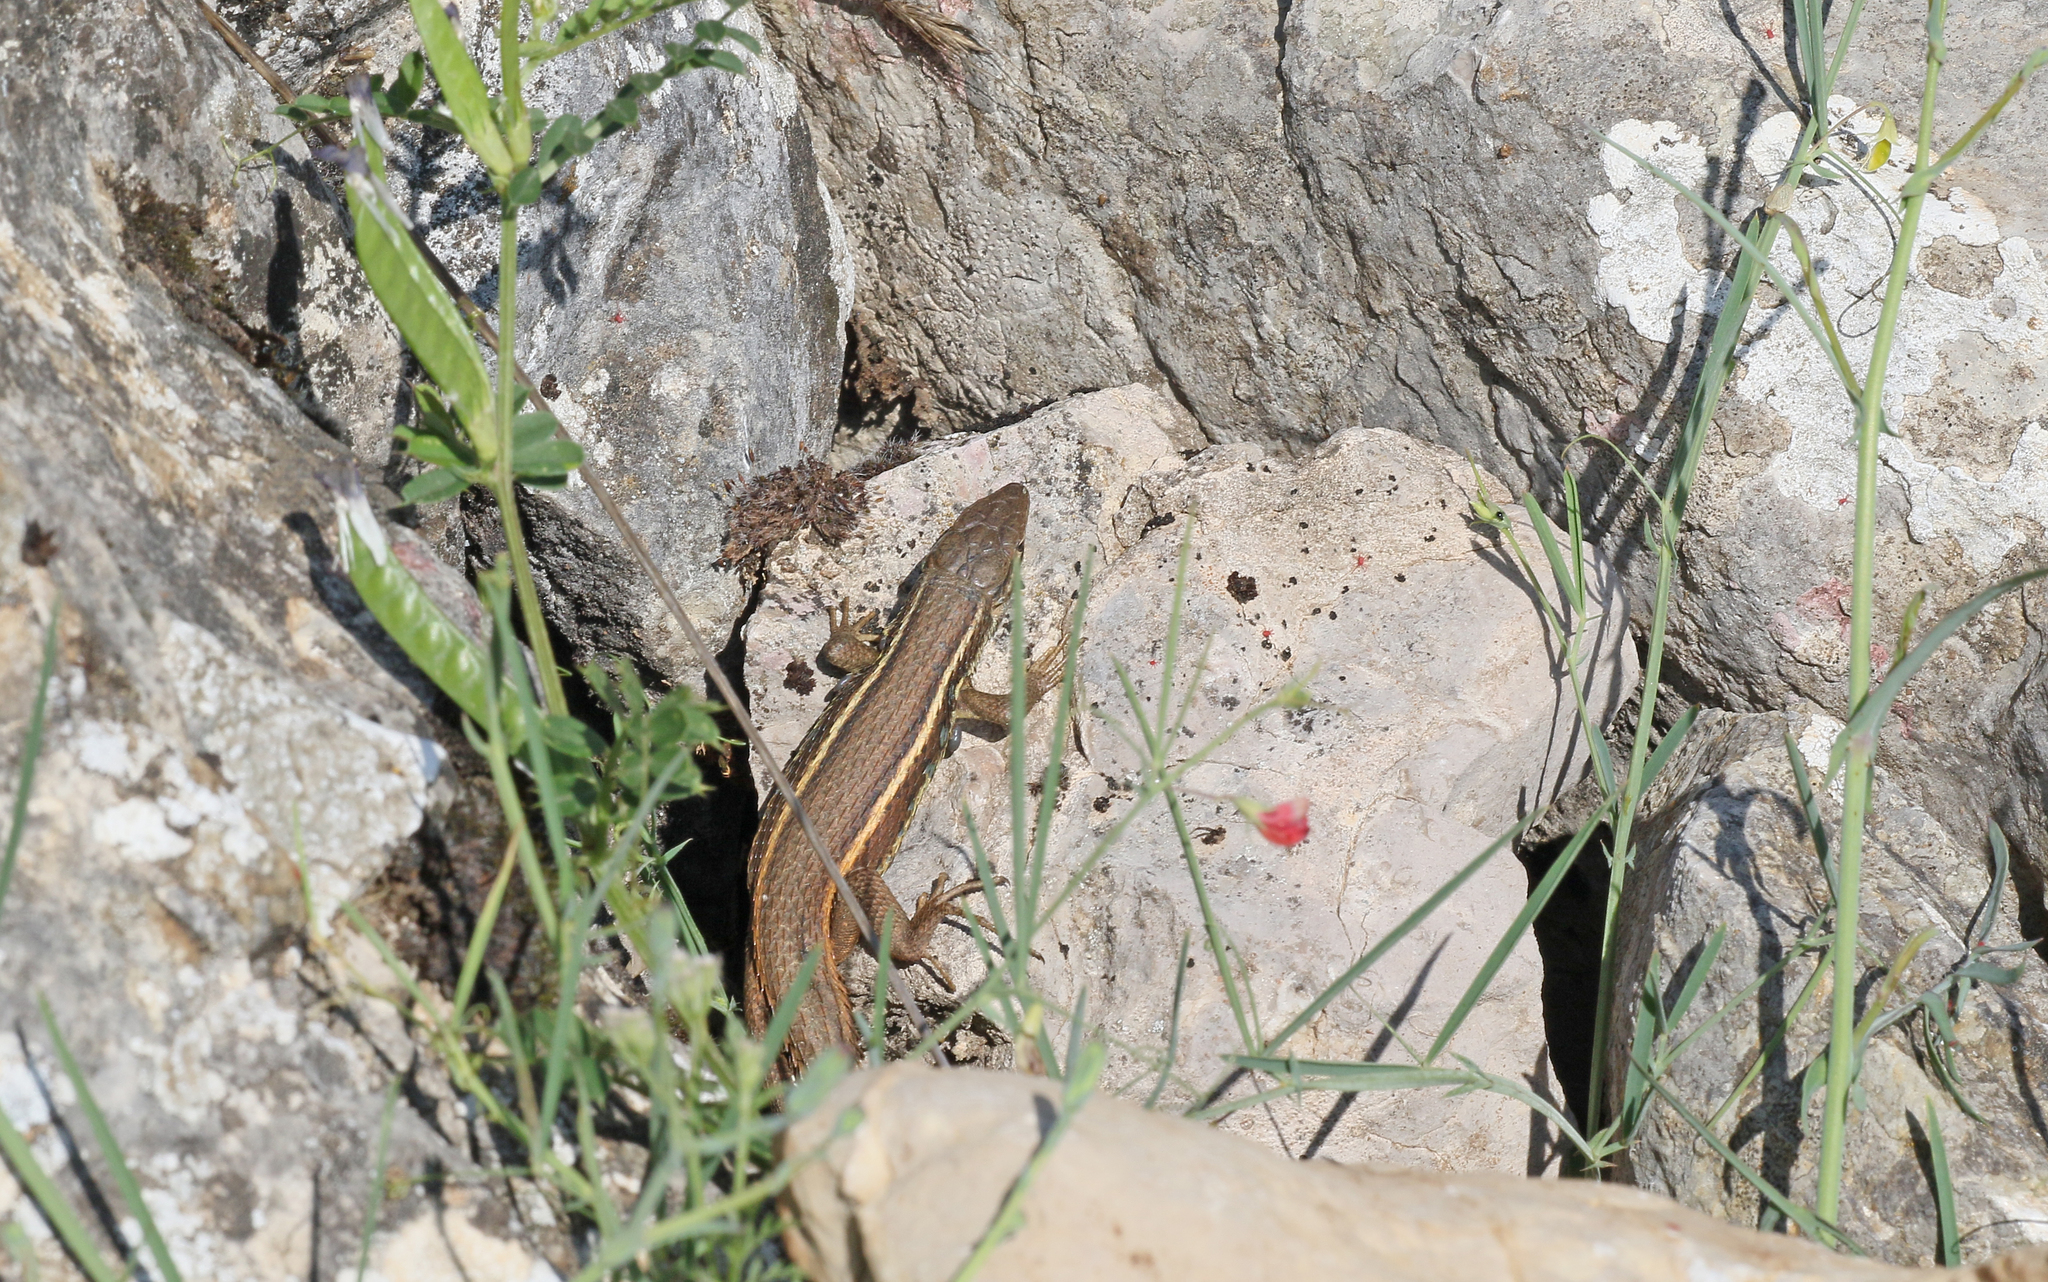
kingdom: Animalia
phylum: Chordata
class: Squamata
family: Lacertidae
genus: Psammodromus
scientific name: Psammodromus algirus
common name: Algerian psammodromus
